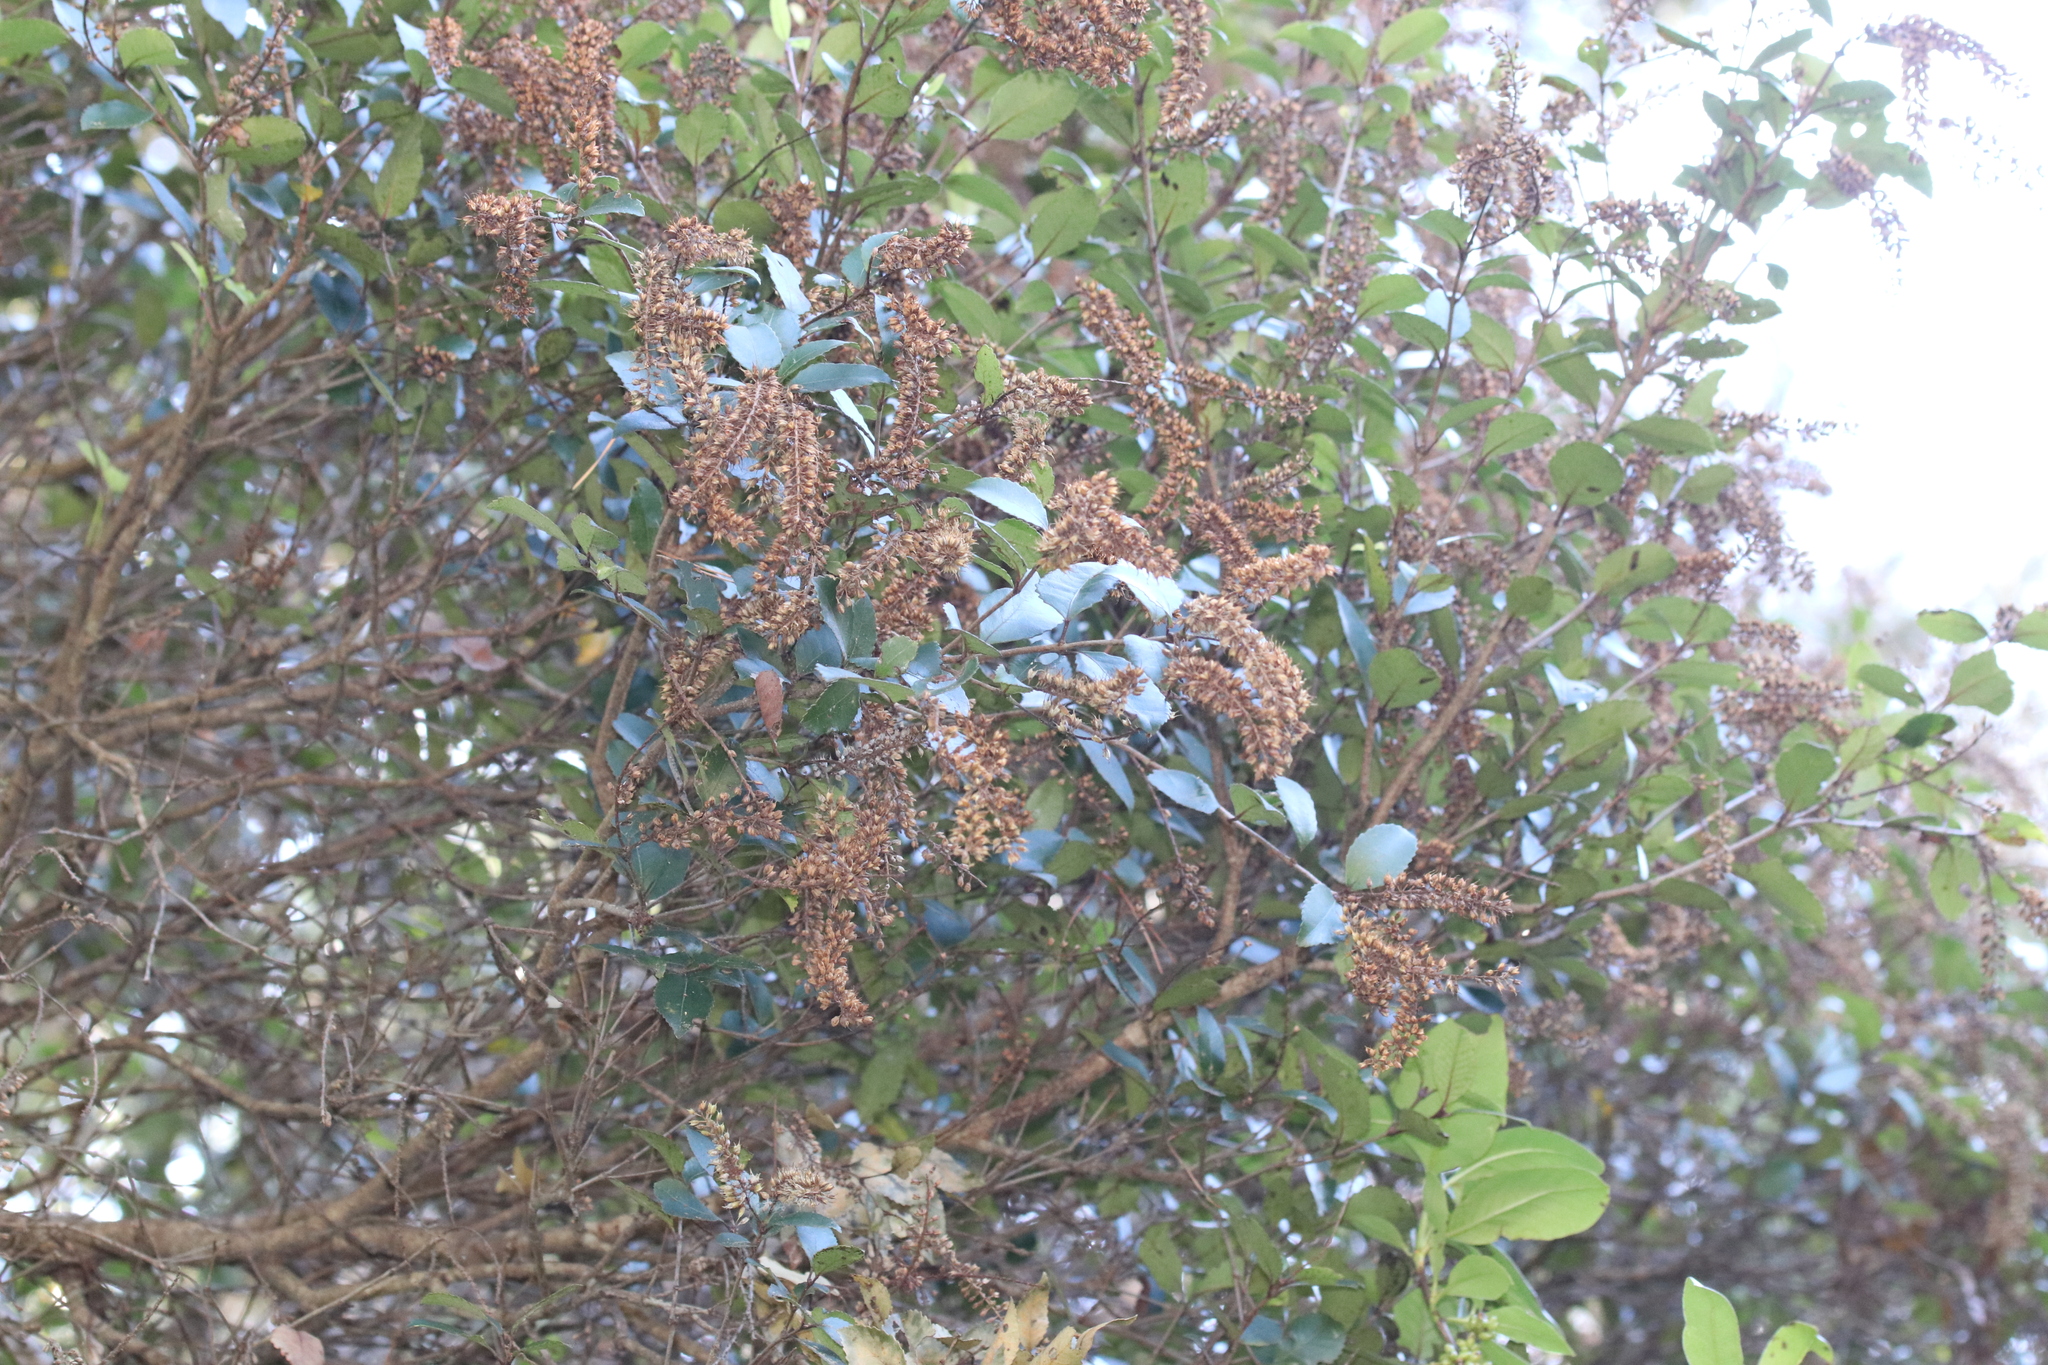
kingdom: Plantae
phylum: Tracheophyta
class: Magnoliopsida
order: Oxalidales
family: Cunoniaceae
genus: Pterophylla
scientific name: Pterophylla racemosa
